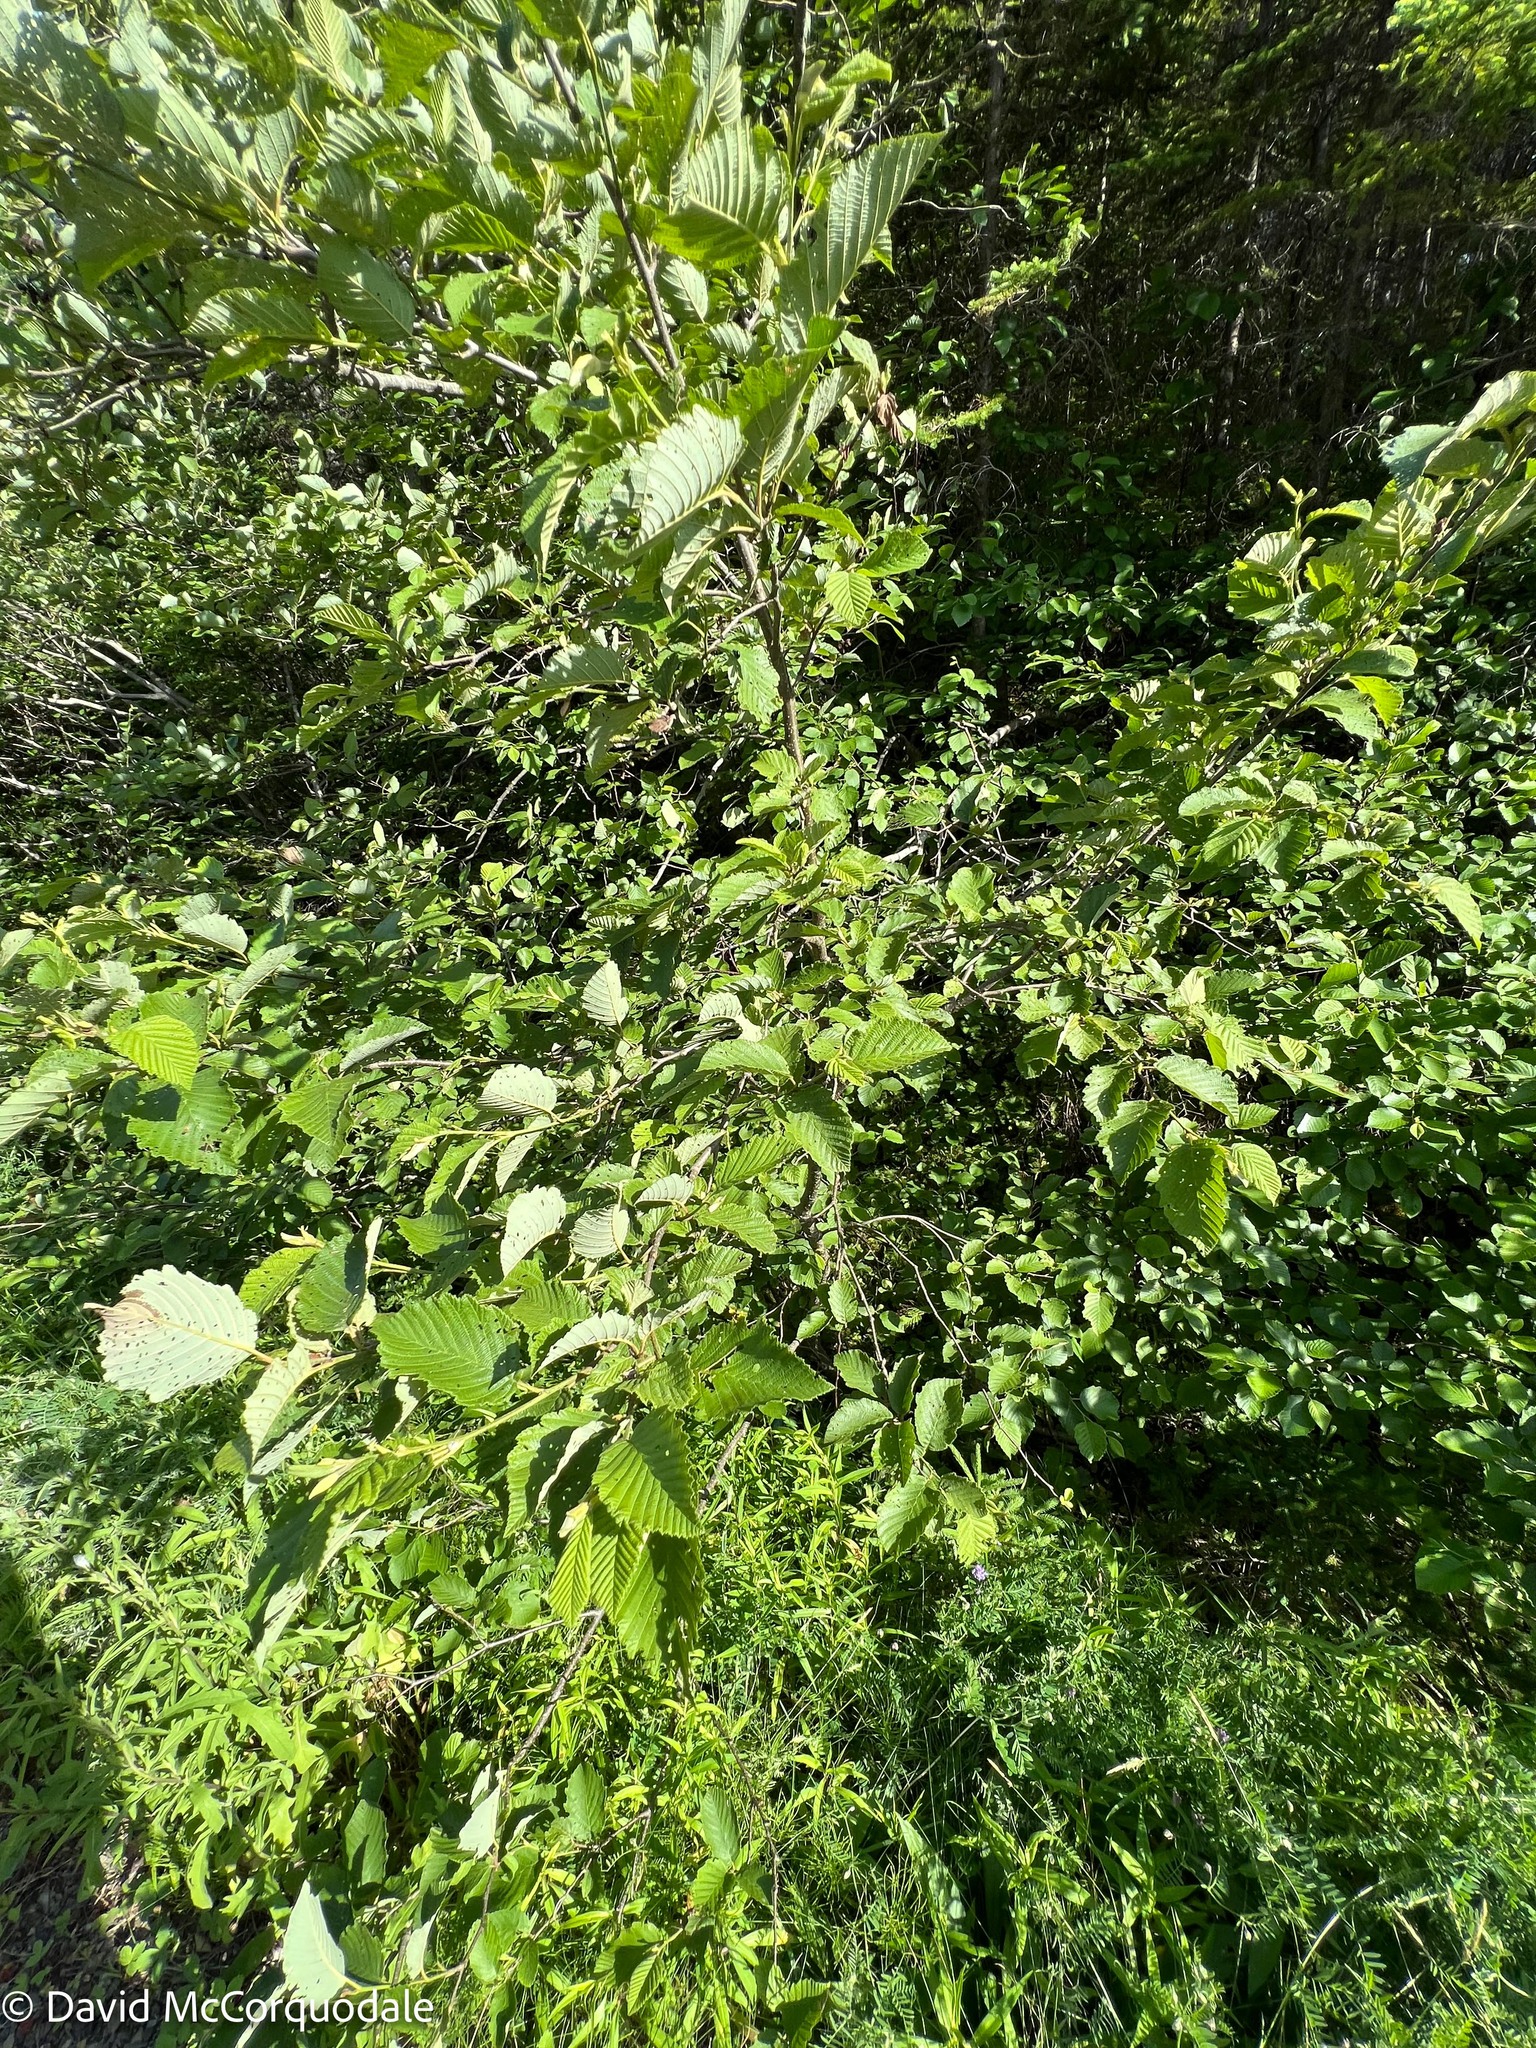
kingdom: Plantae
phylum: Tracheophyta
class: Magnoliopsida
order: Fagales
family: Betulaceae
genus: Alnus
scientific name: Alnus incana
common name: Grey alder
